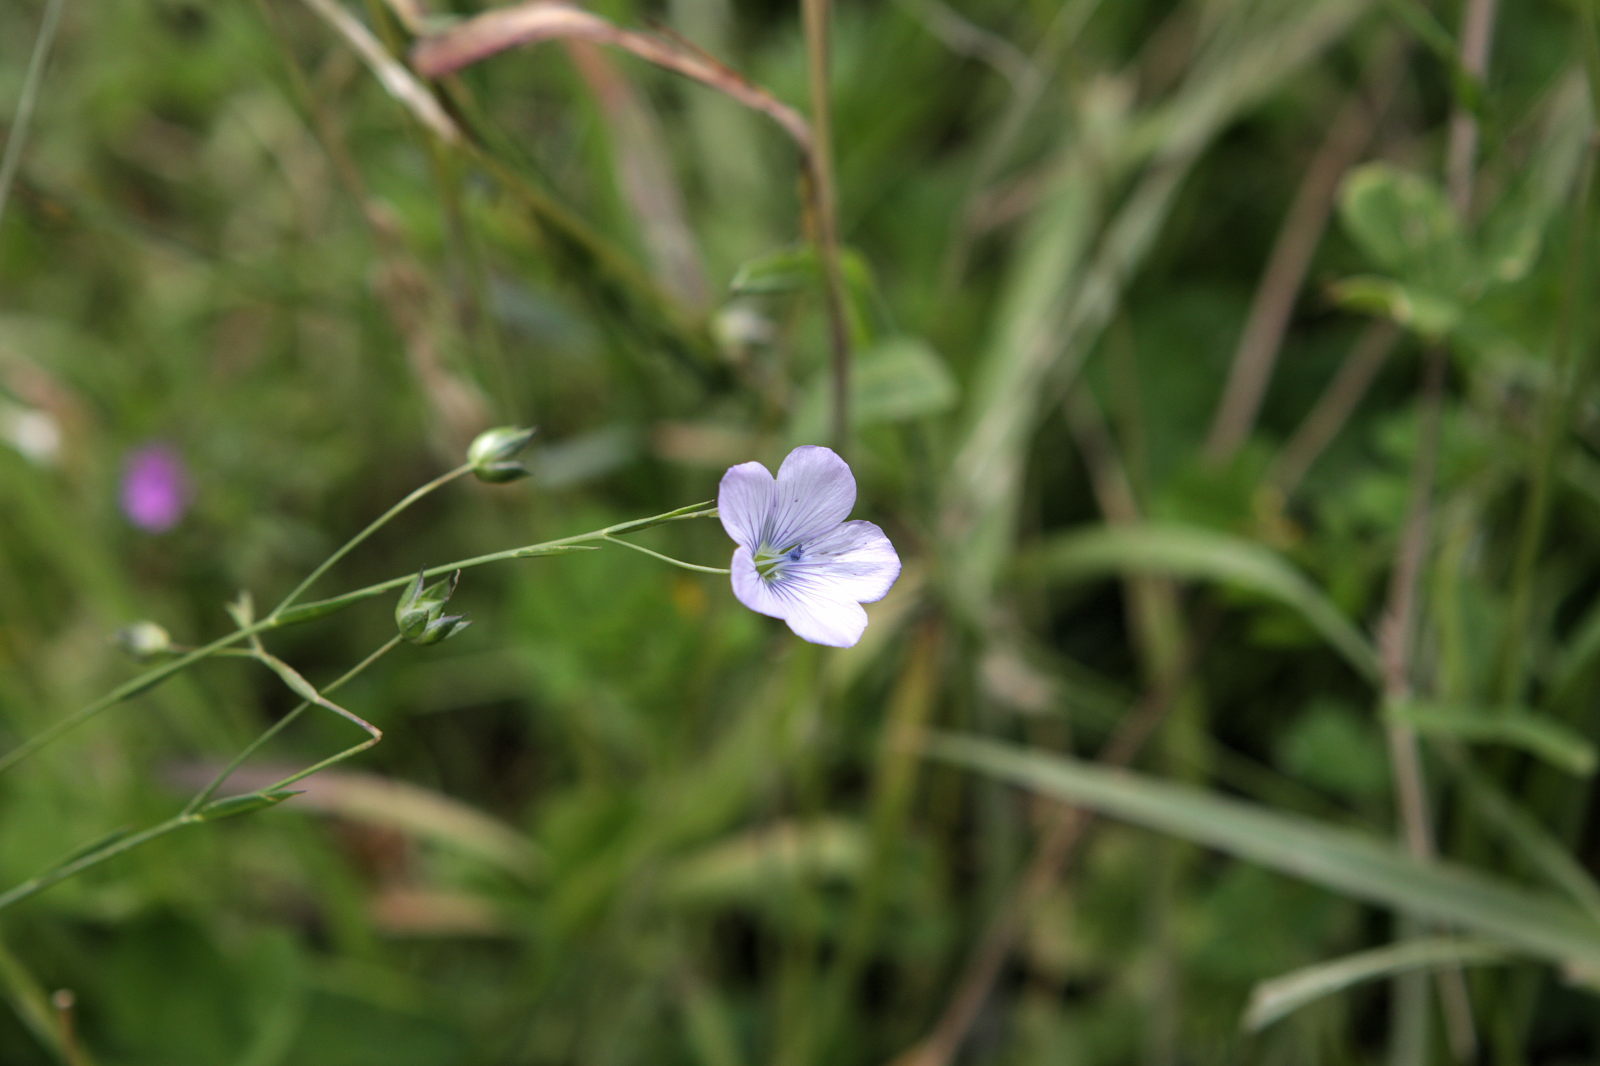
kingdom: Plantae
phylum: Tracheophyta
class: Magnoliopsida
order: Malpighiales
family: Linaceae
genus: Linum
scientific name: Linum bienne
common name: Pale flax
